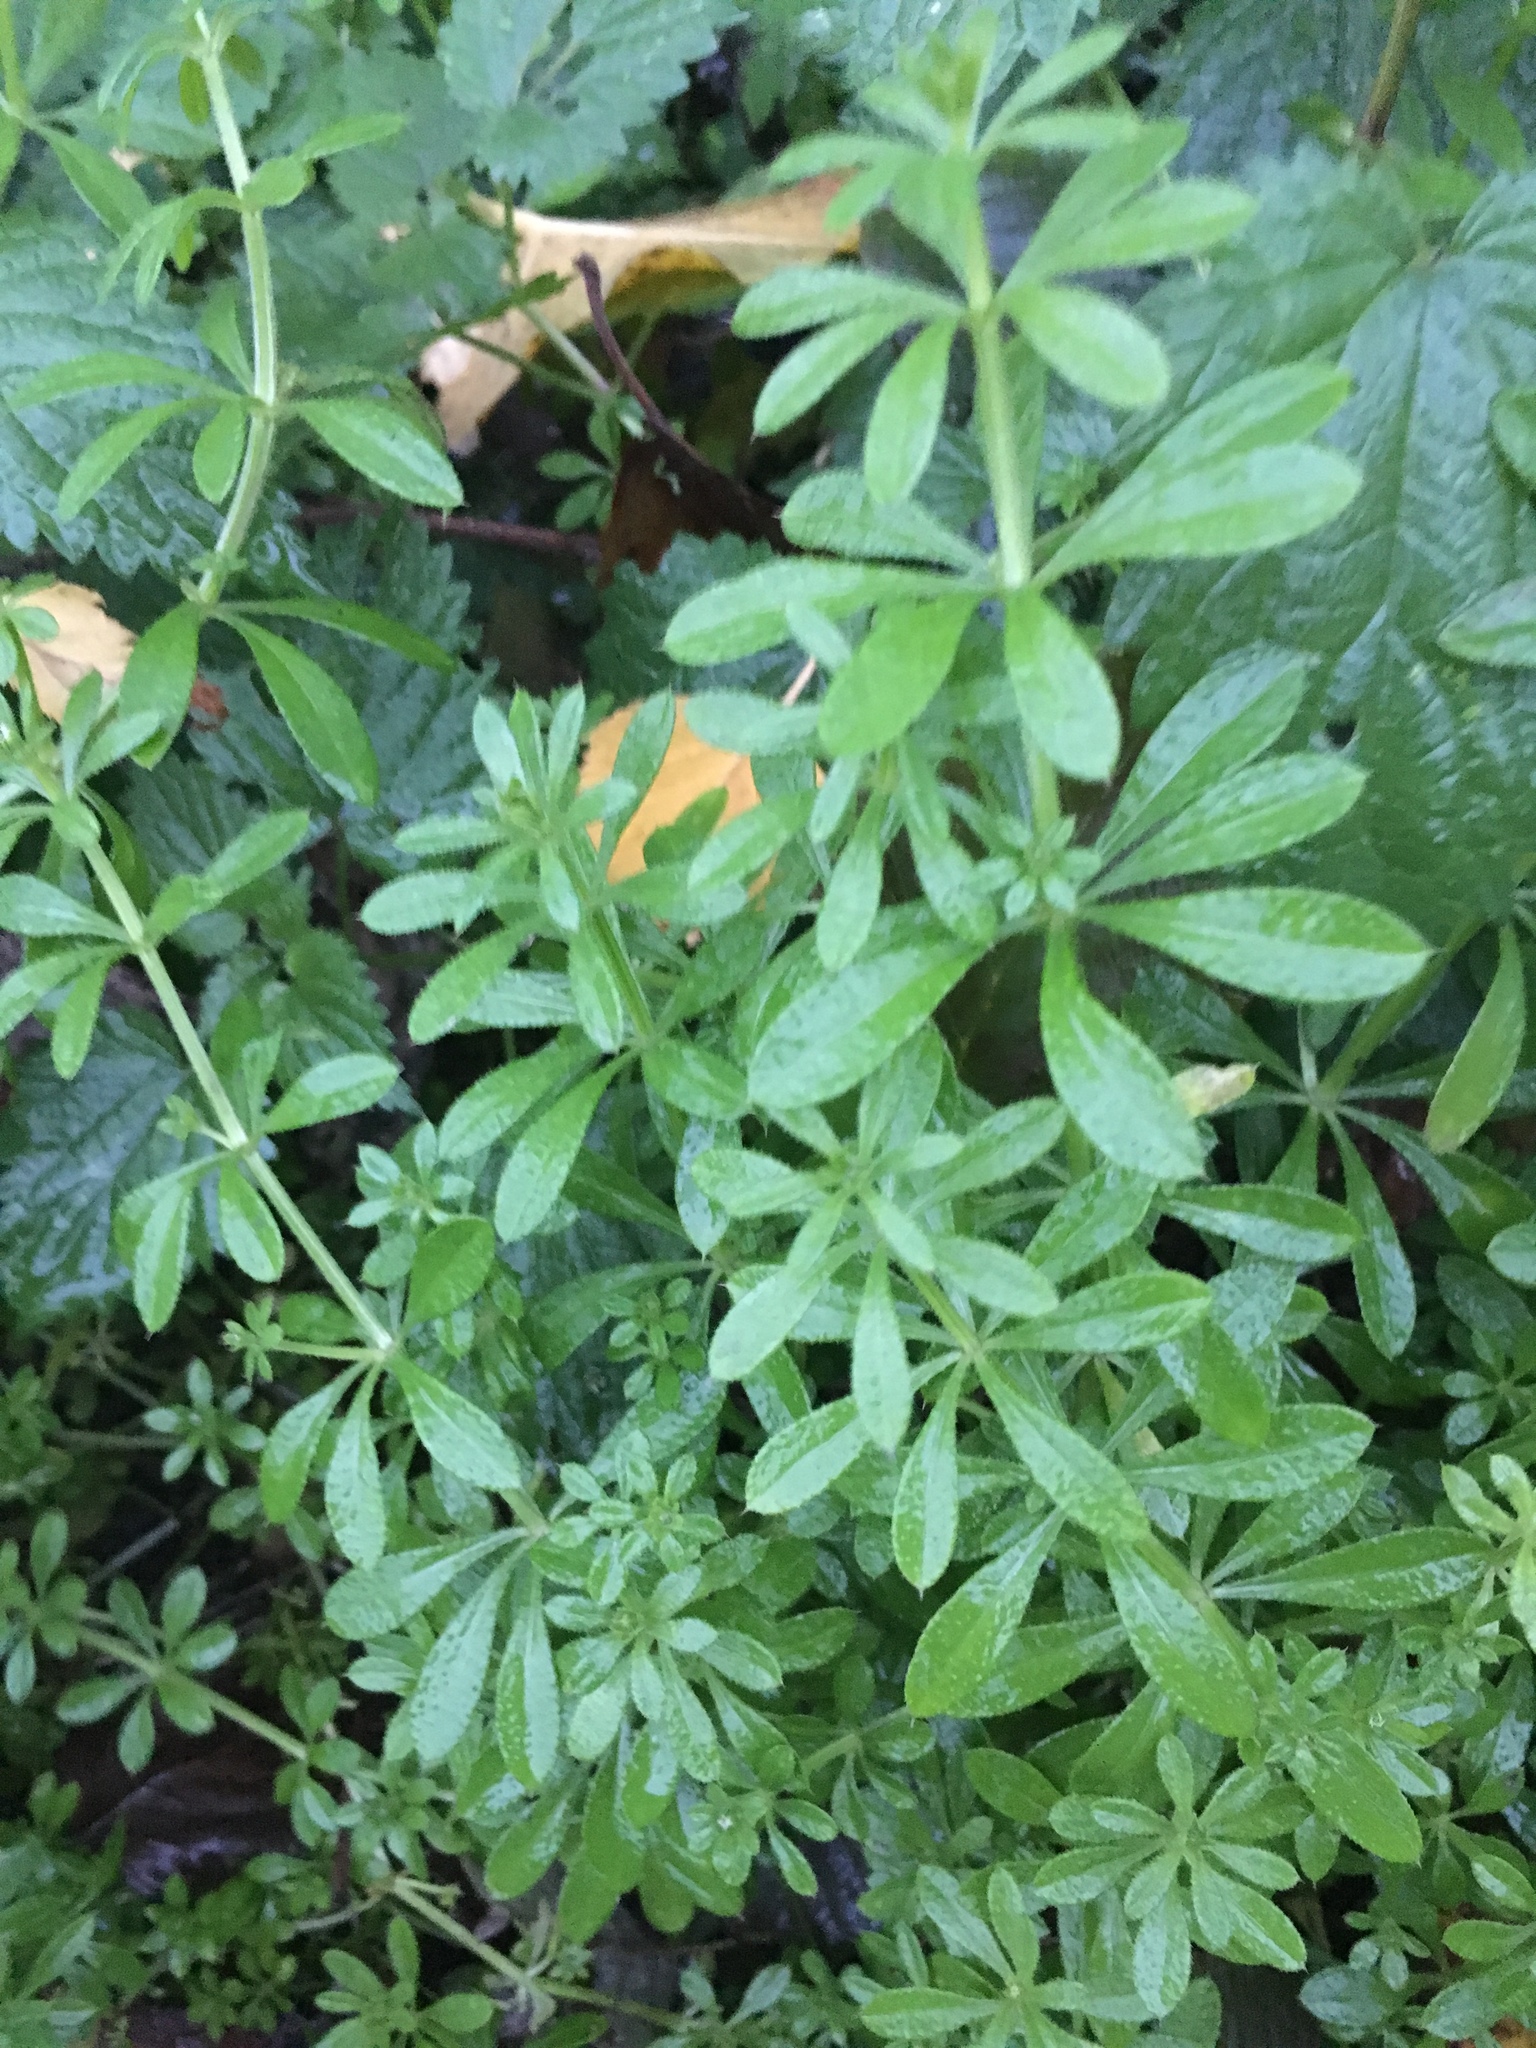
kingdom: Plantae
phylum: Tracheophyta
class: Magnoliopsida
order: Gentianales
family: Rubiaceae
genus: Galium
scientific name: Galium aparine
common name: Cleavers
